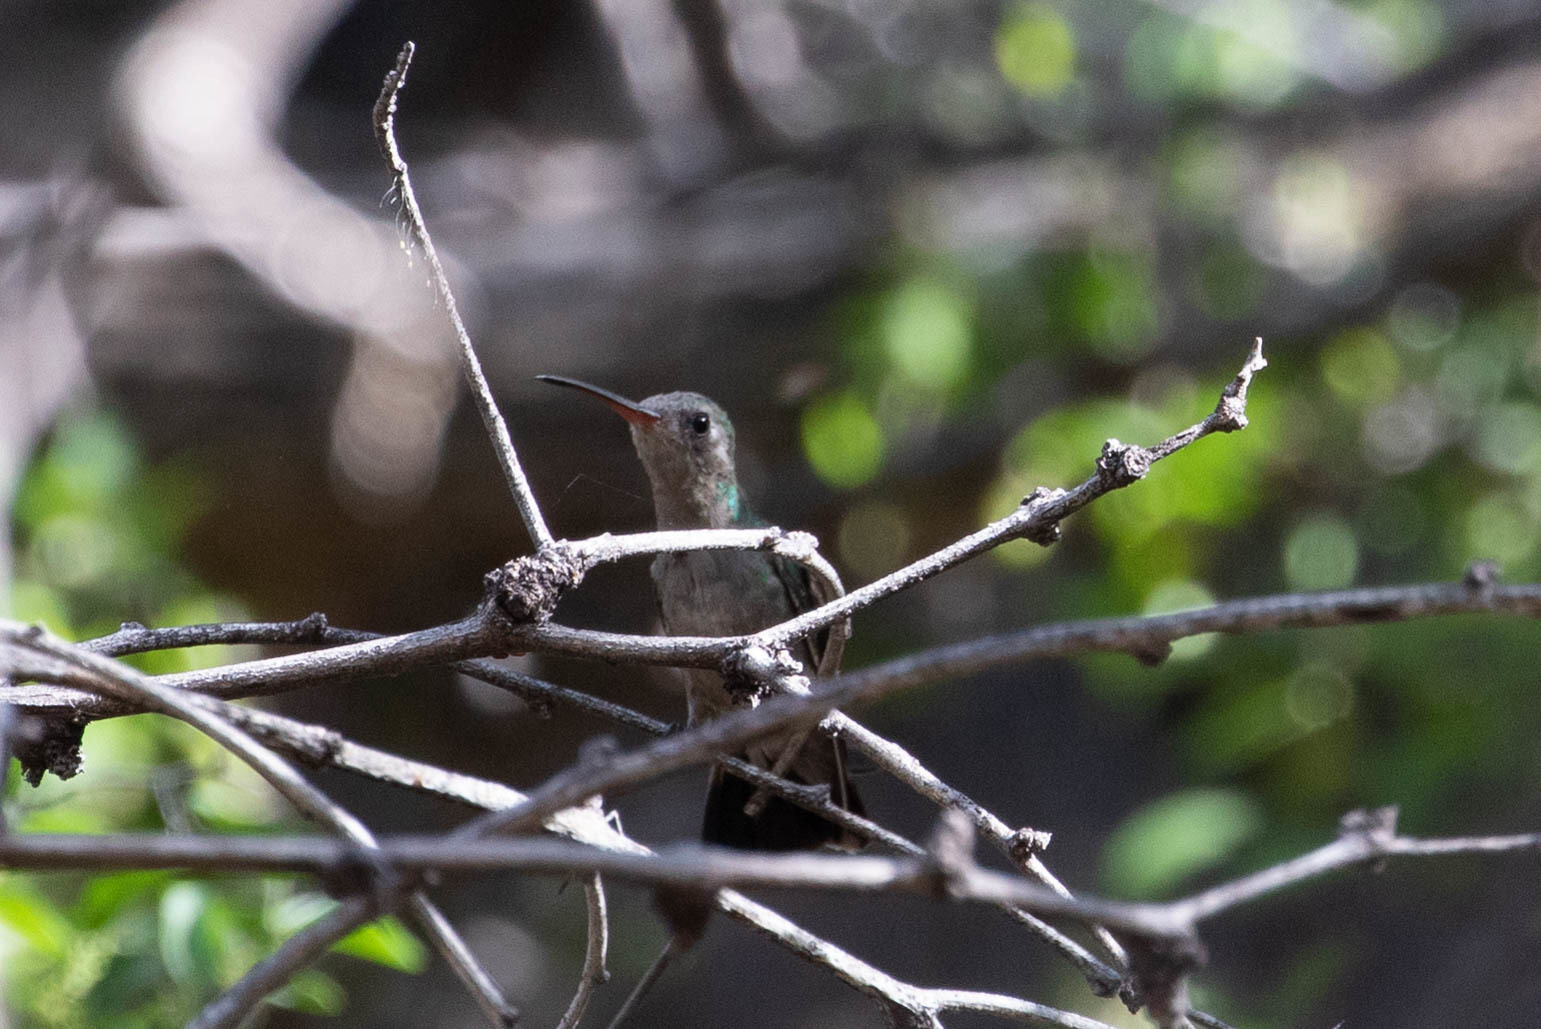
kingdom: Animalia
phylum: Chordata
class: Aves
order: Apodiformes
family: Trochilidae
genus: Cynanthus
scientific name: Cynanthus latirostris
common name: Broad-billed hummingbird
